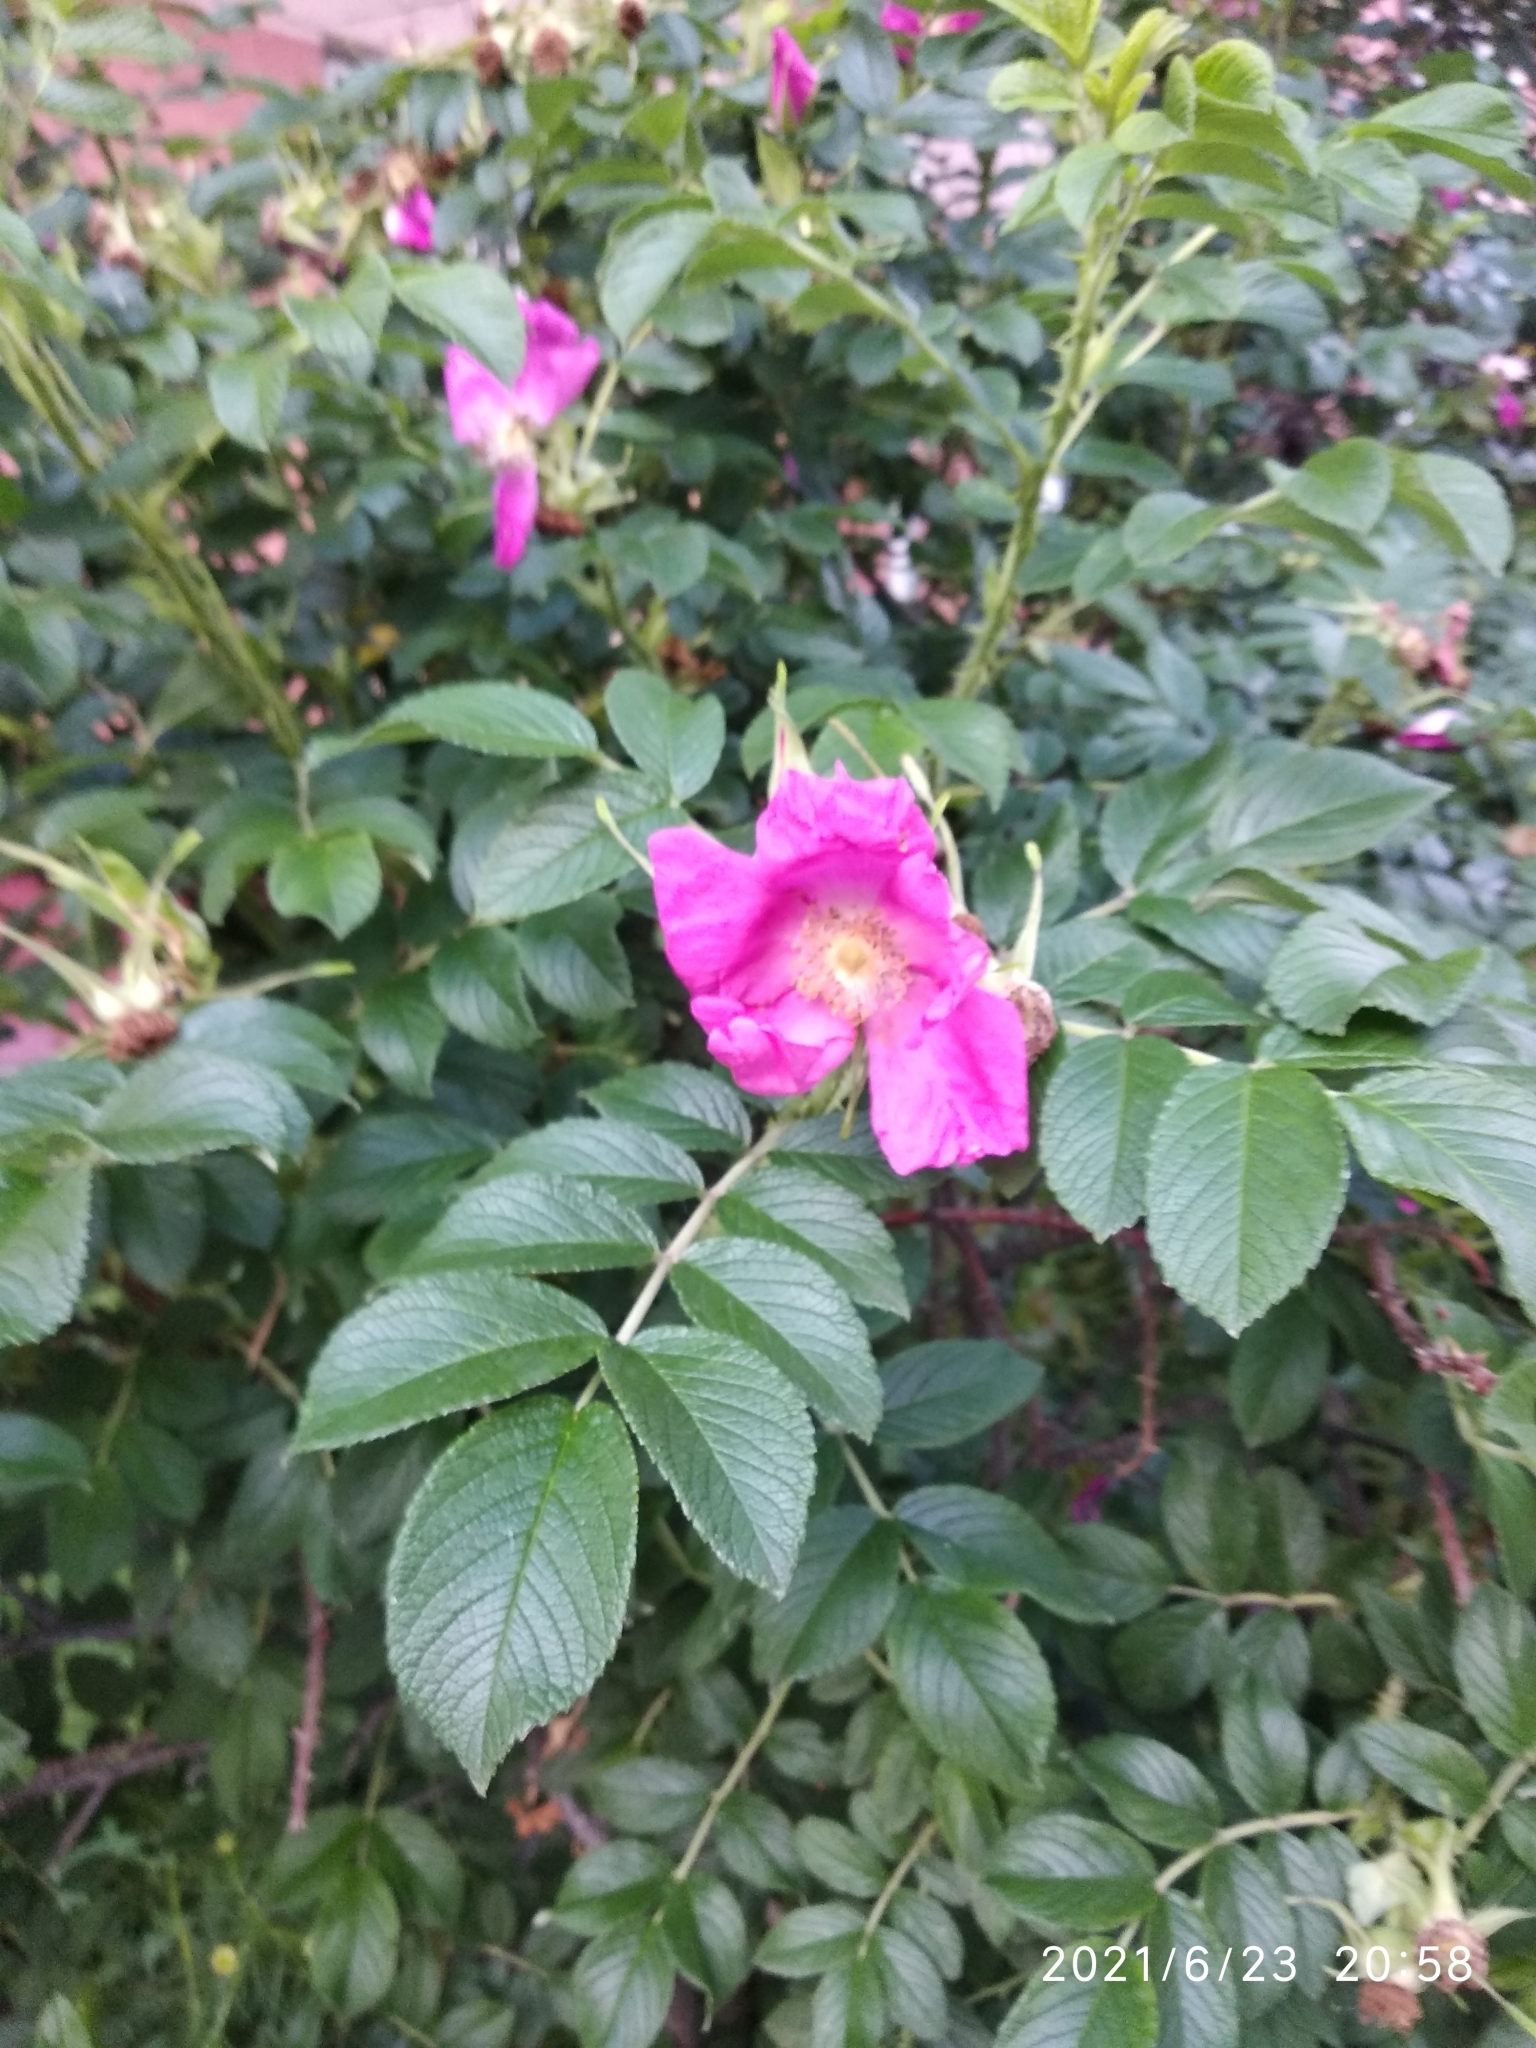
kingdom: Plantae
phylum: Tracheophyta
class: Magnoliopsida
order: Rosales
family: Rosaceae
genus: Rosa
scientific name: Rosa rugosa
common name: Japanese rose
